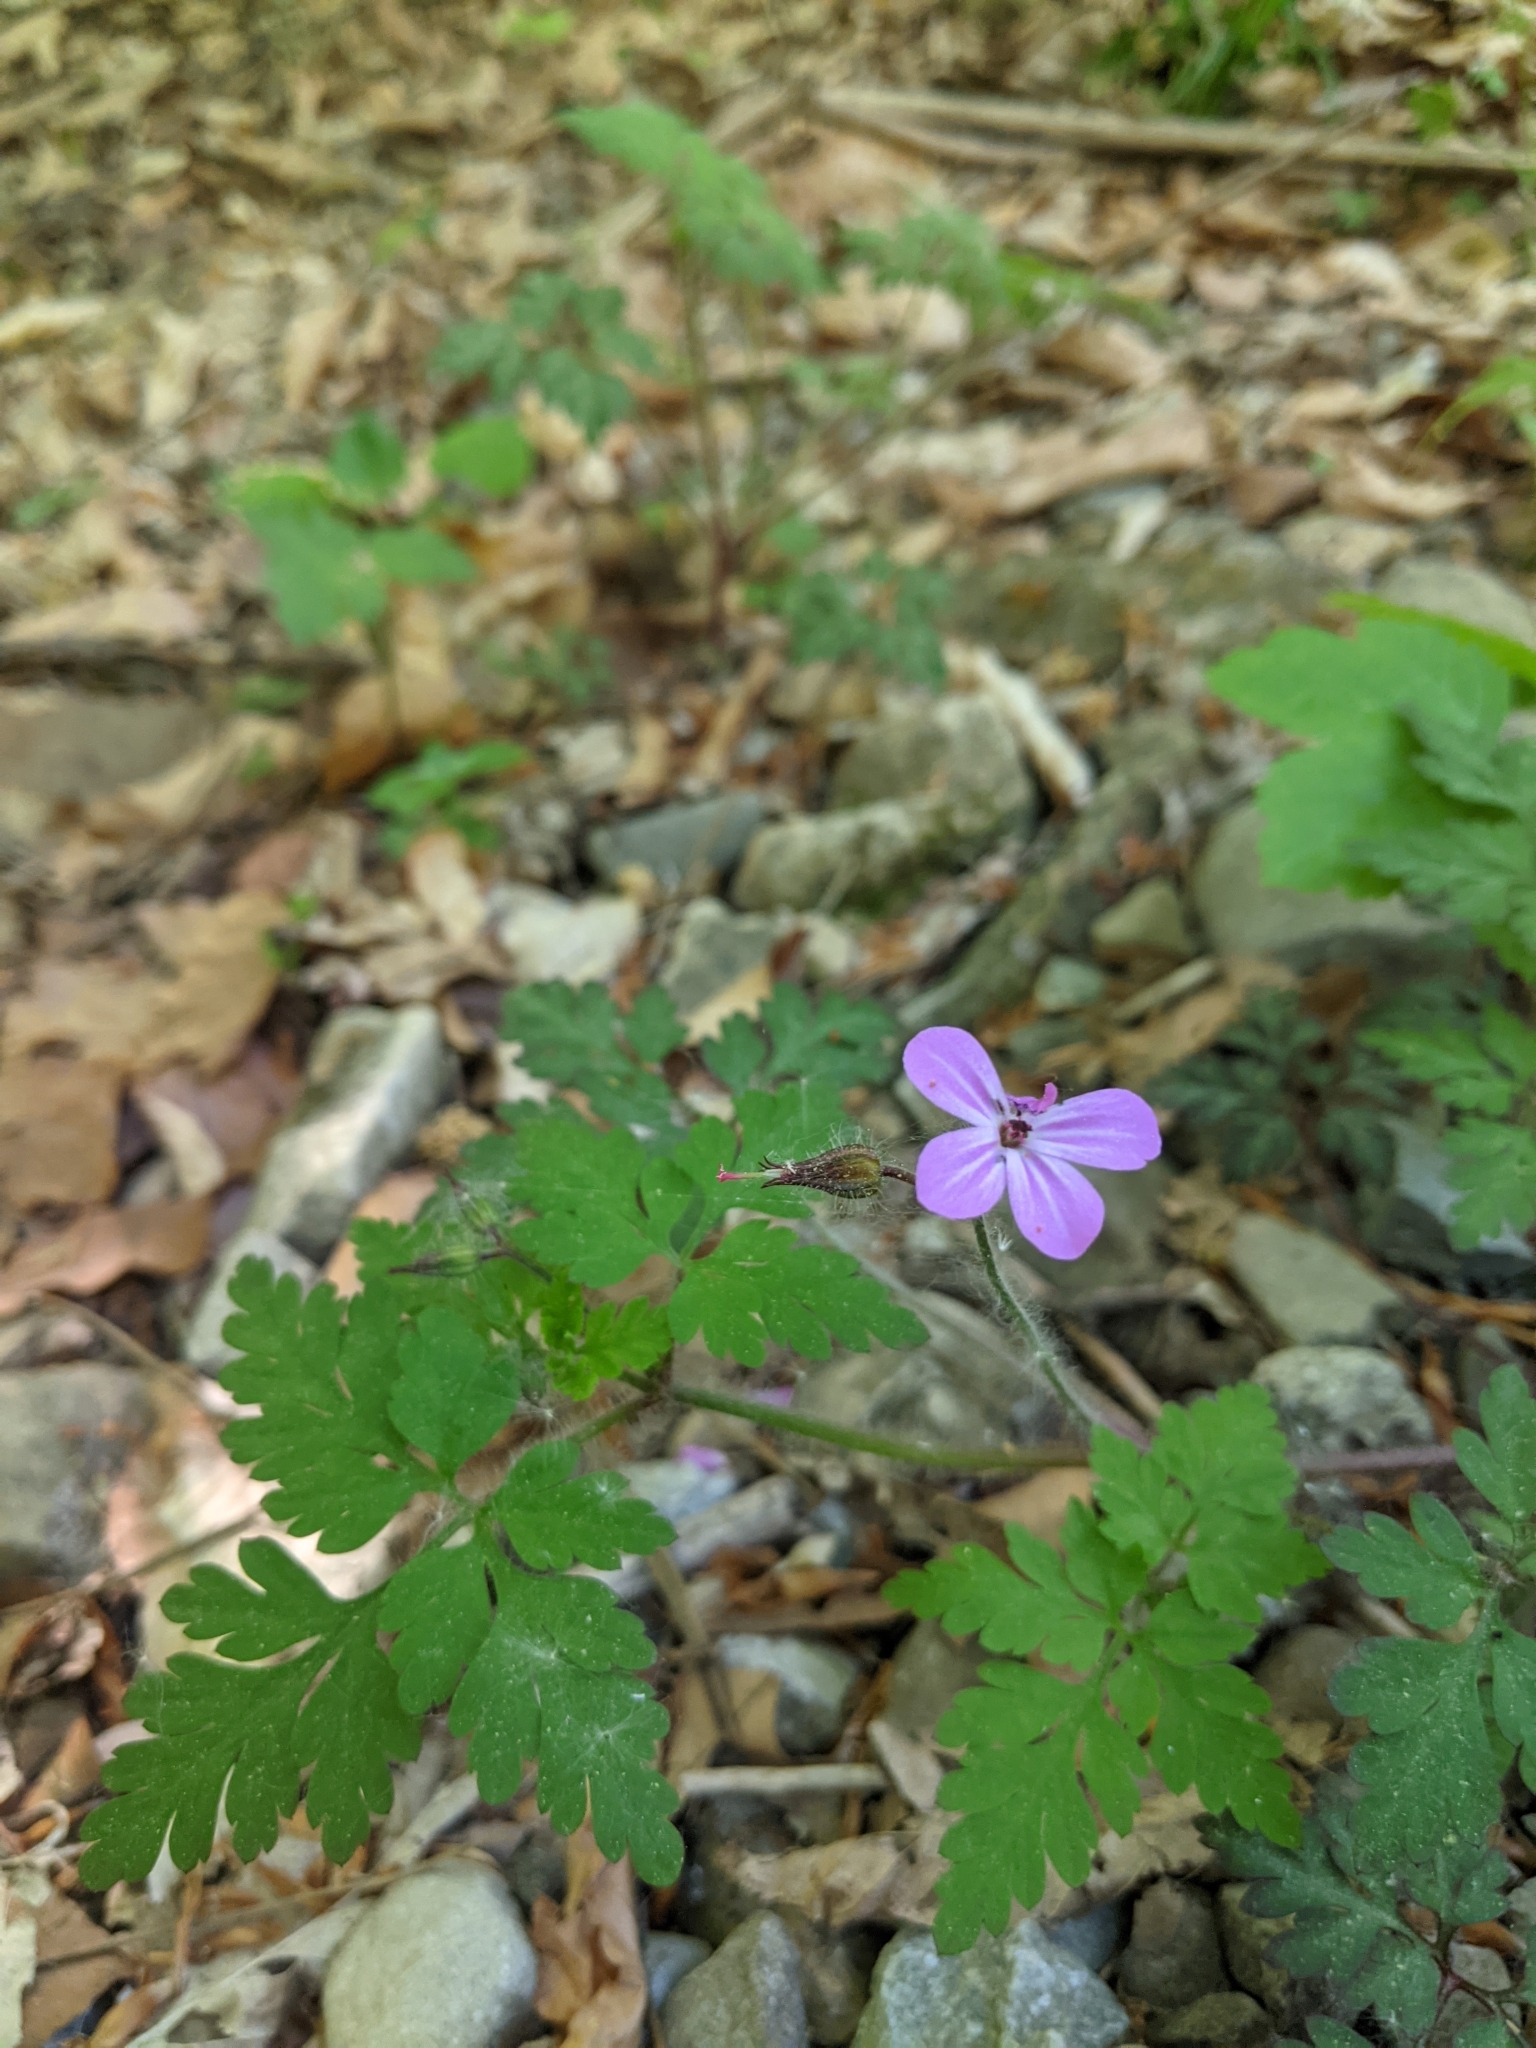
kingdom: Plantae
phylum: Tracheophyta
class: Magnoliopsida
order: Geraniales
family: Geraniaceae
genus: Geranium
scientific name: Geranium robertianum
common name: Herb-robert
